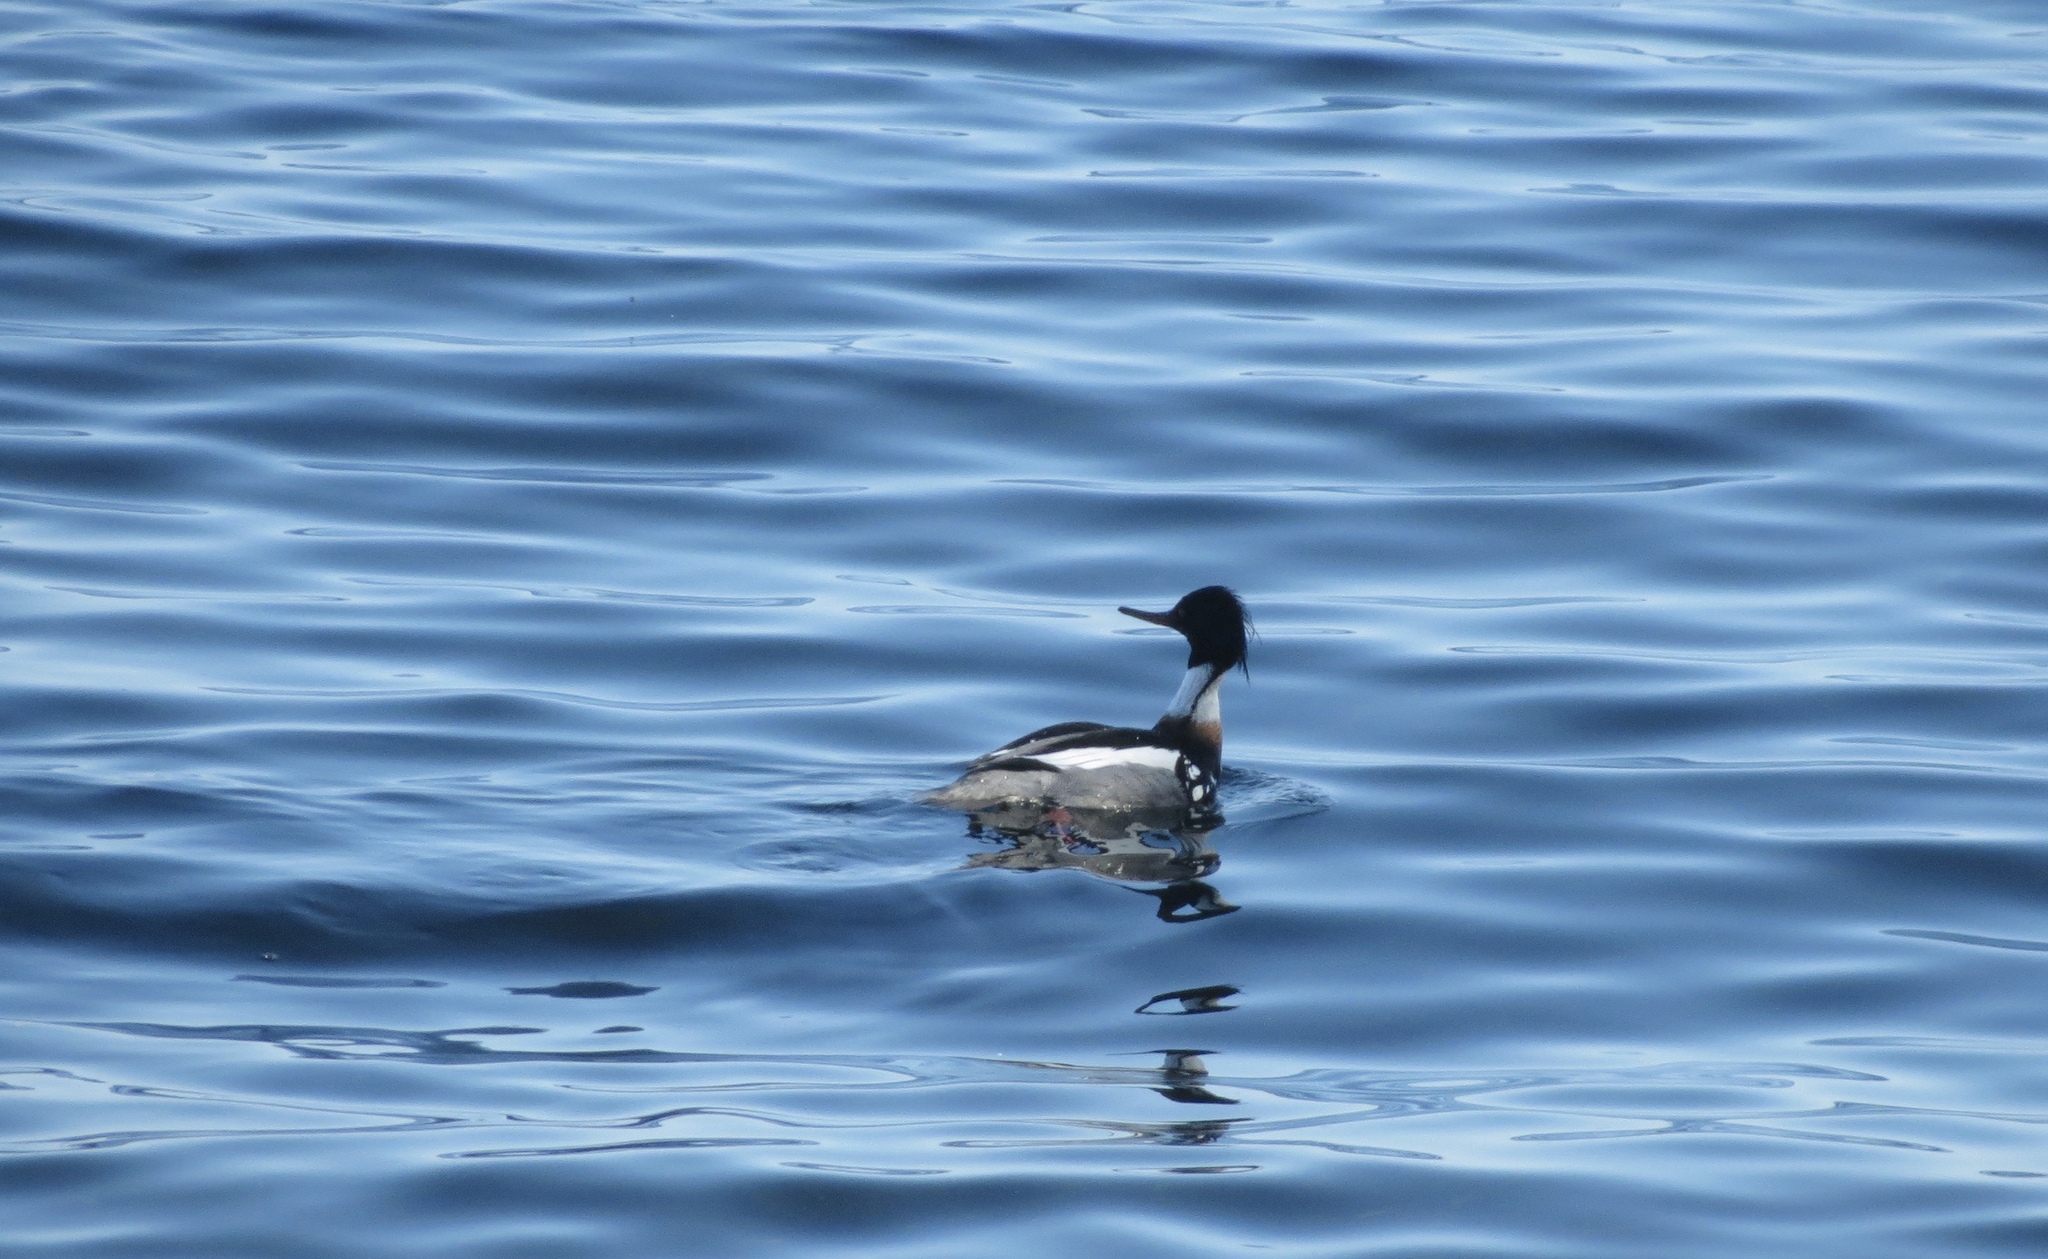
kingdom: Animalia
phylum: Chordata
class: Aves
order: Anseriformes
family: Anatidae
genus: Mergus
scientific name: Mergus serrator
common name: Red-breasted merganser
